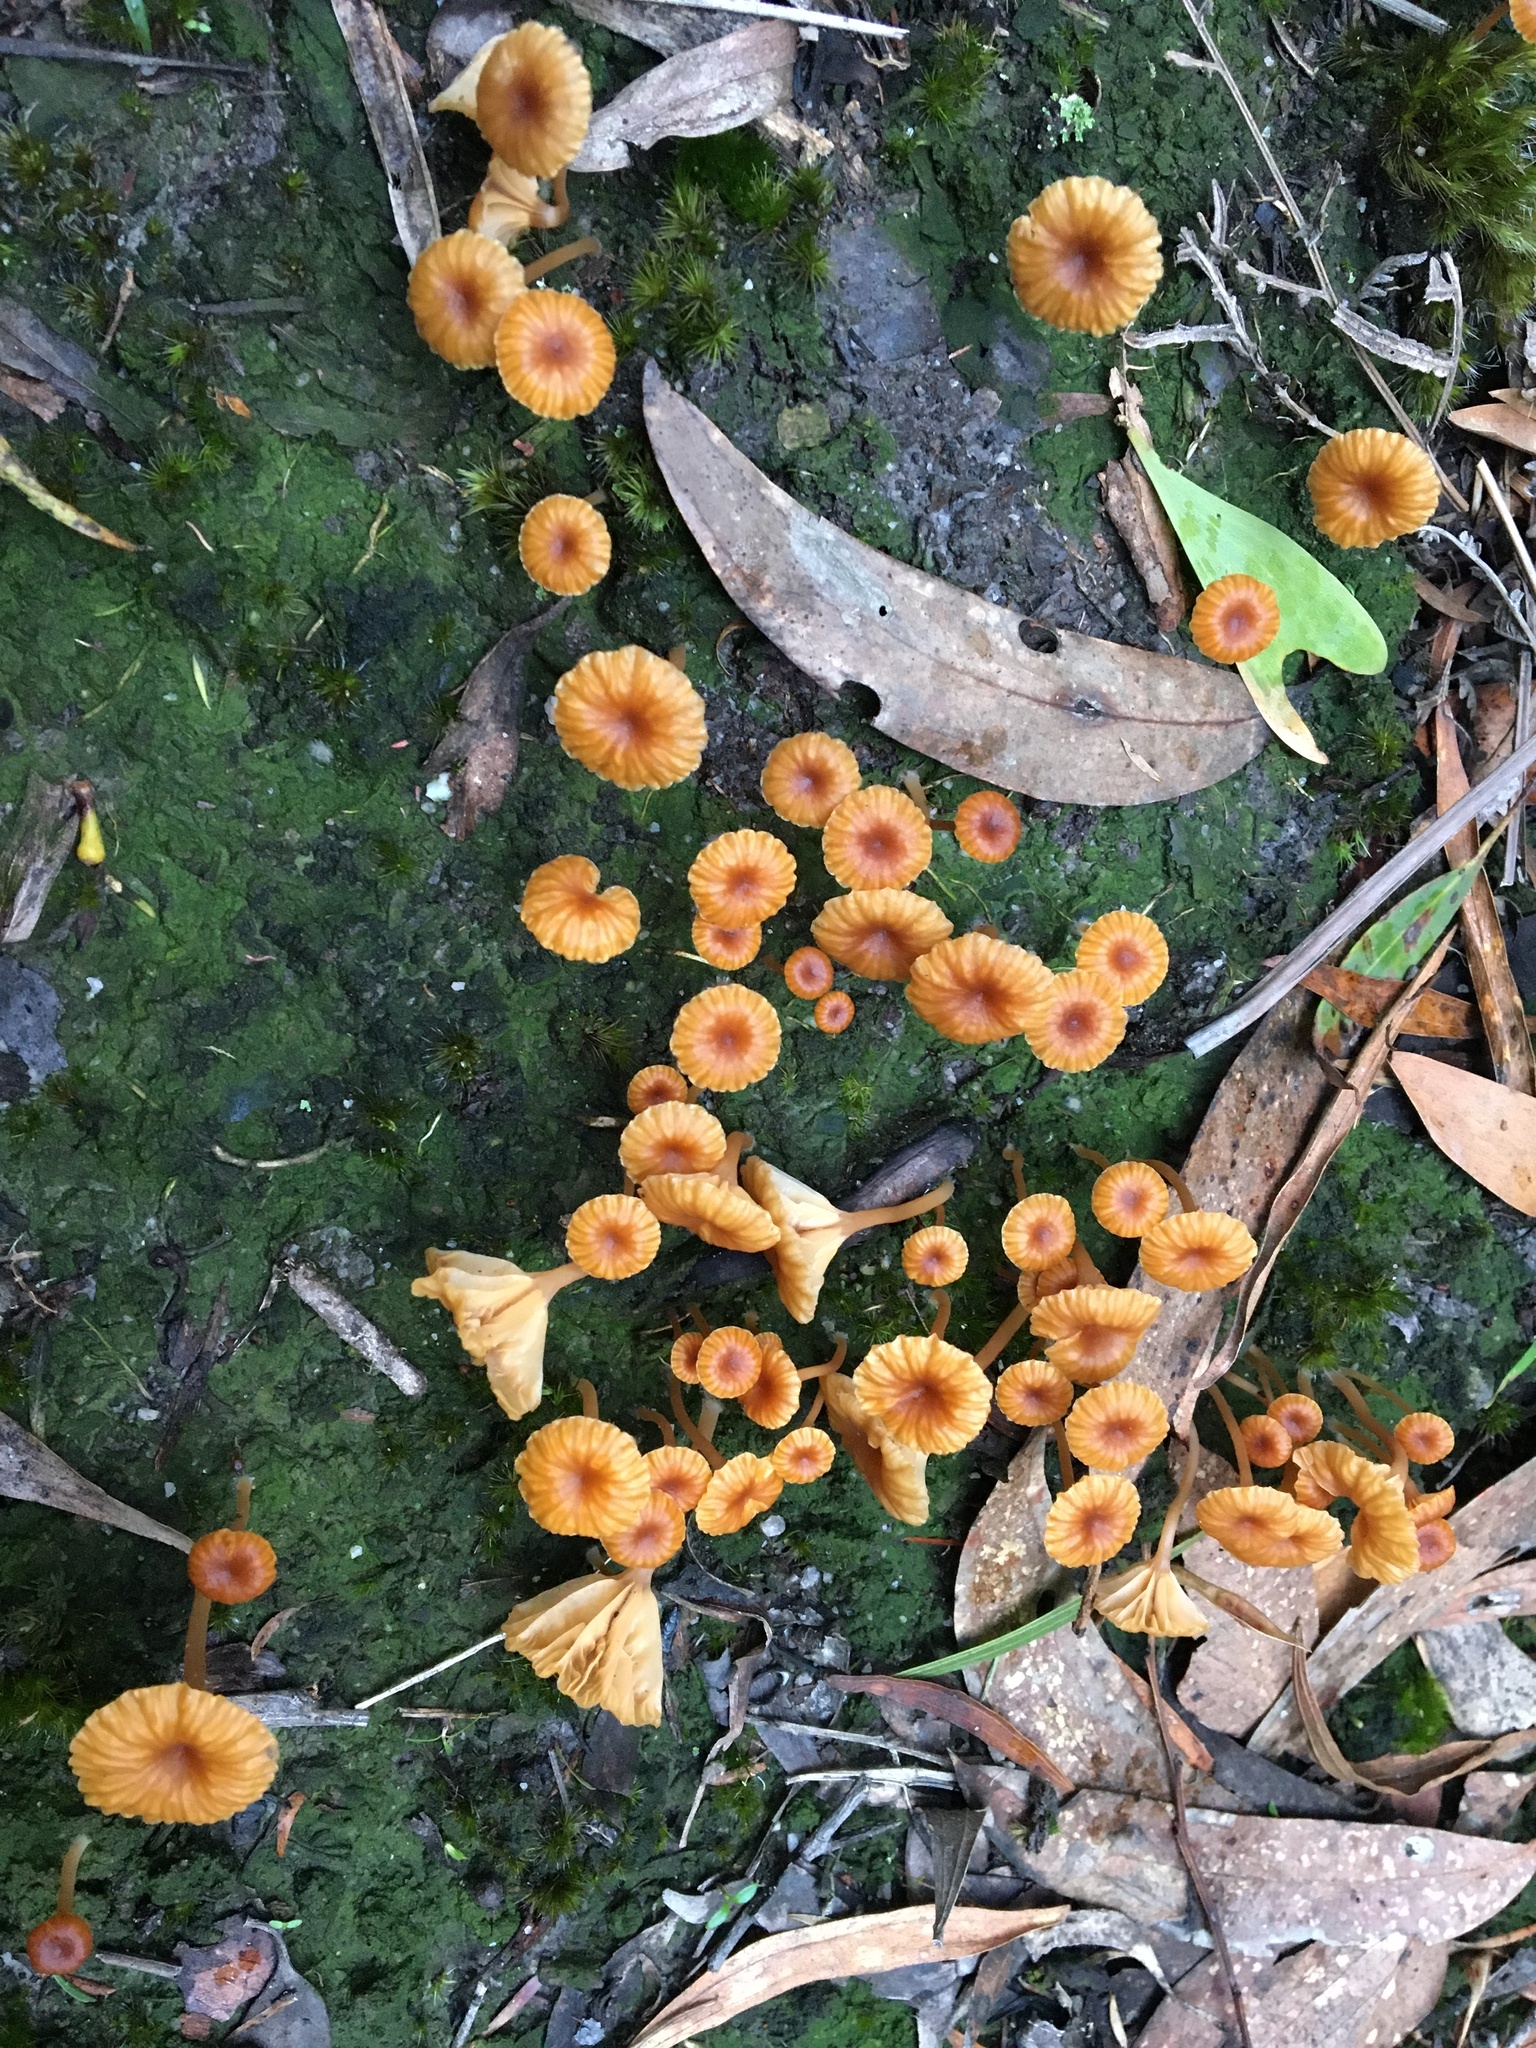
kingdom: Fungi
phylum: Basidiomycota
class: Agaricomycetes
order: Agaricales
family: Hygrophoraceae
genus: Lichenomphalia
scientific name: Lichenomphalia chromacea
